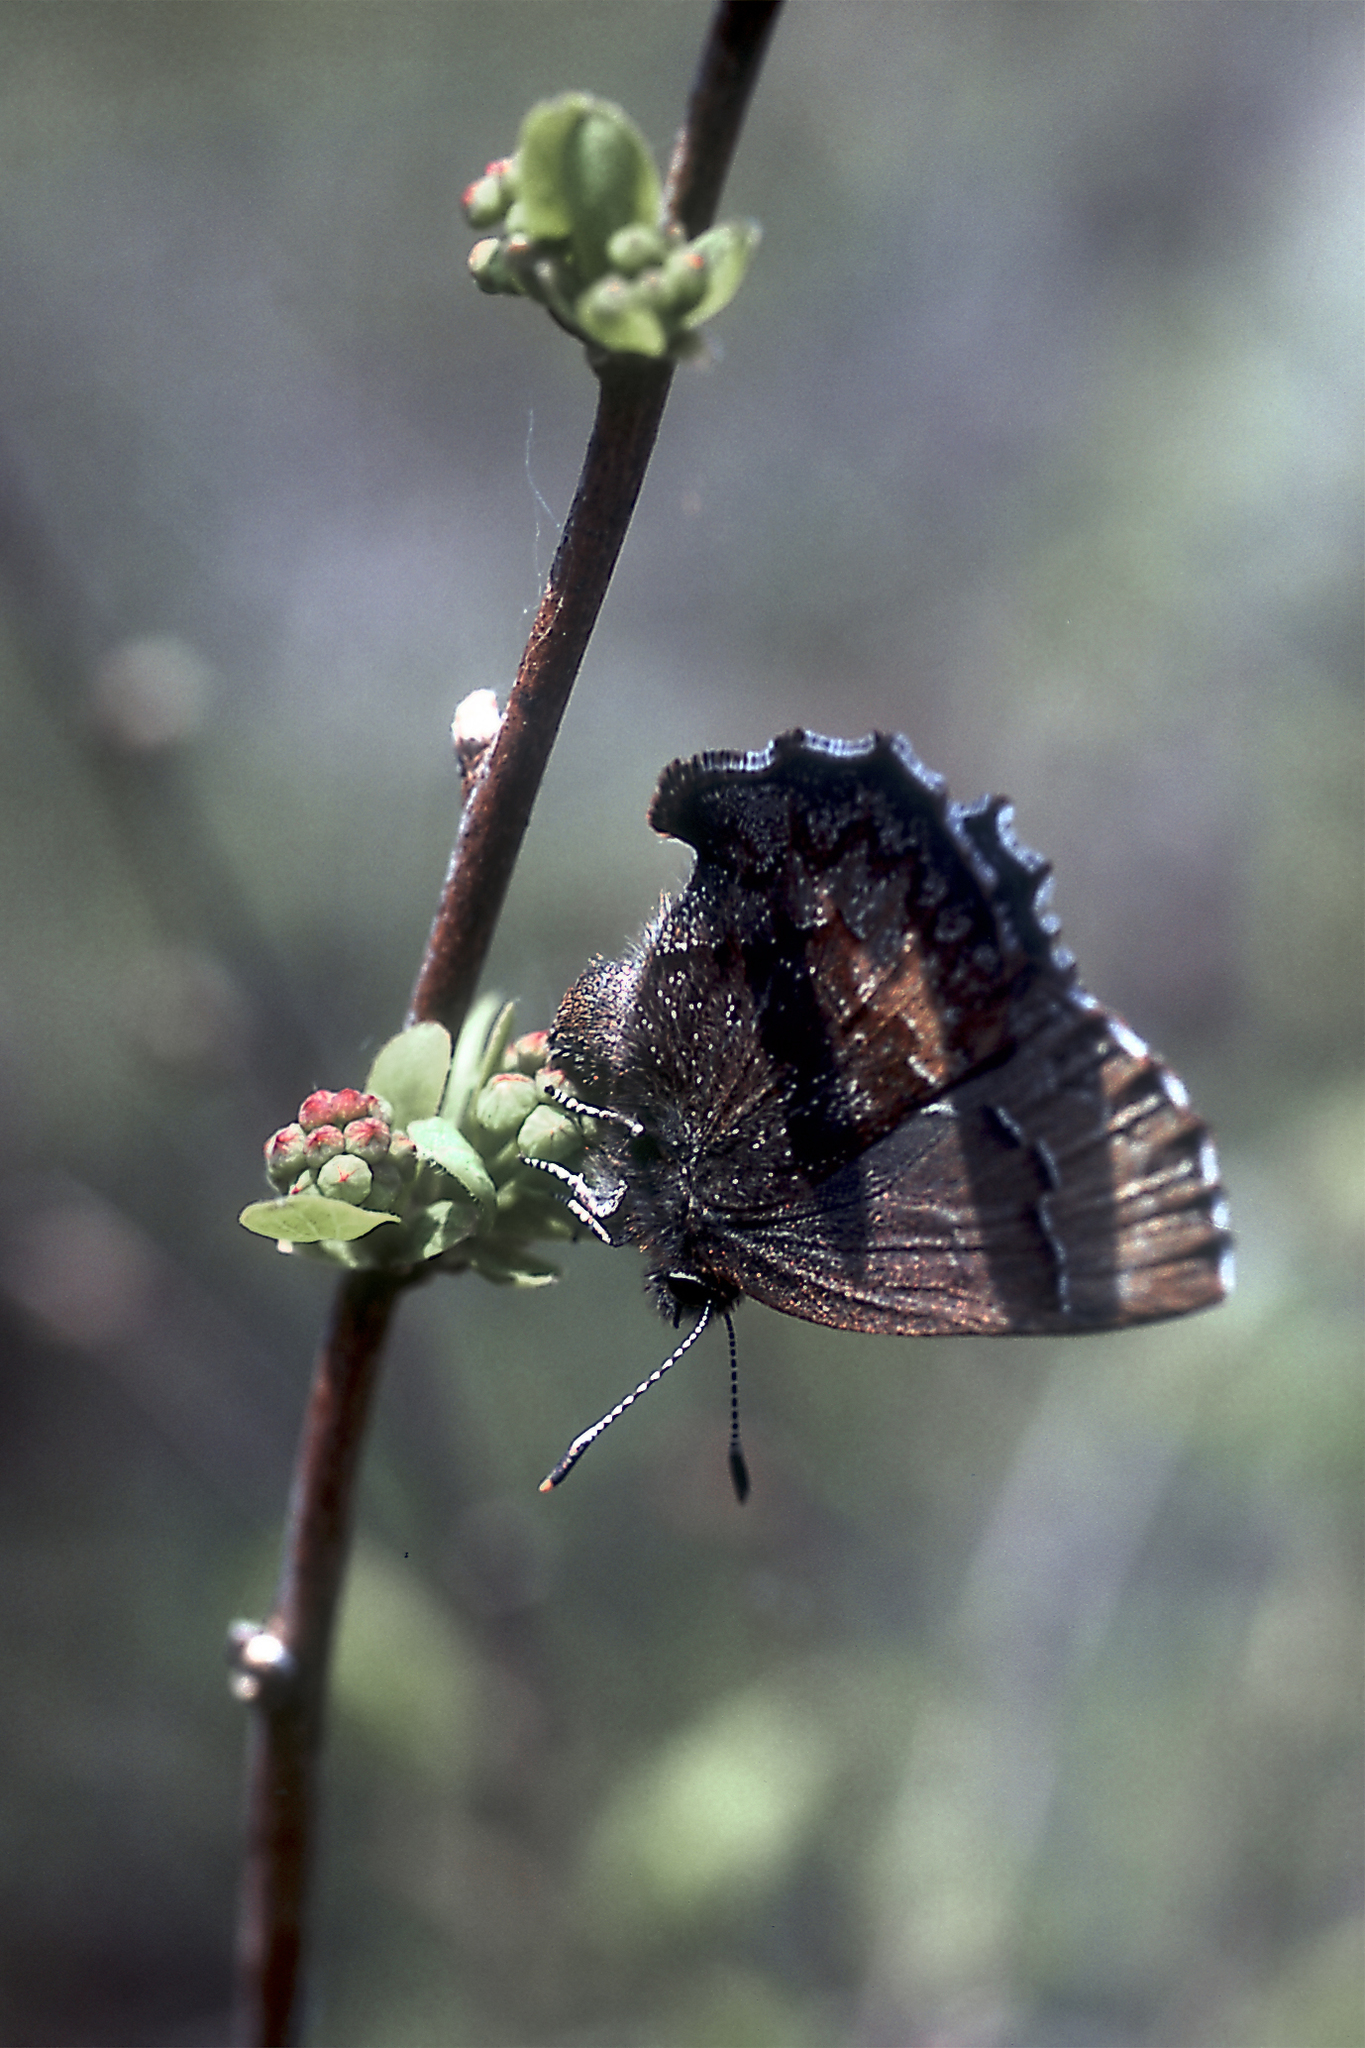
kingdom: Animalia
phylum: Arthropoda
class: Insecta
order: Lepidoptera
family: Lycaenidae
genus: Ginzia
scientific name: Ginzia Ahlbergia frivaldszkyi
